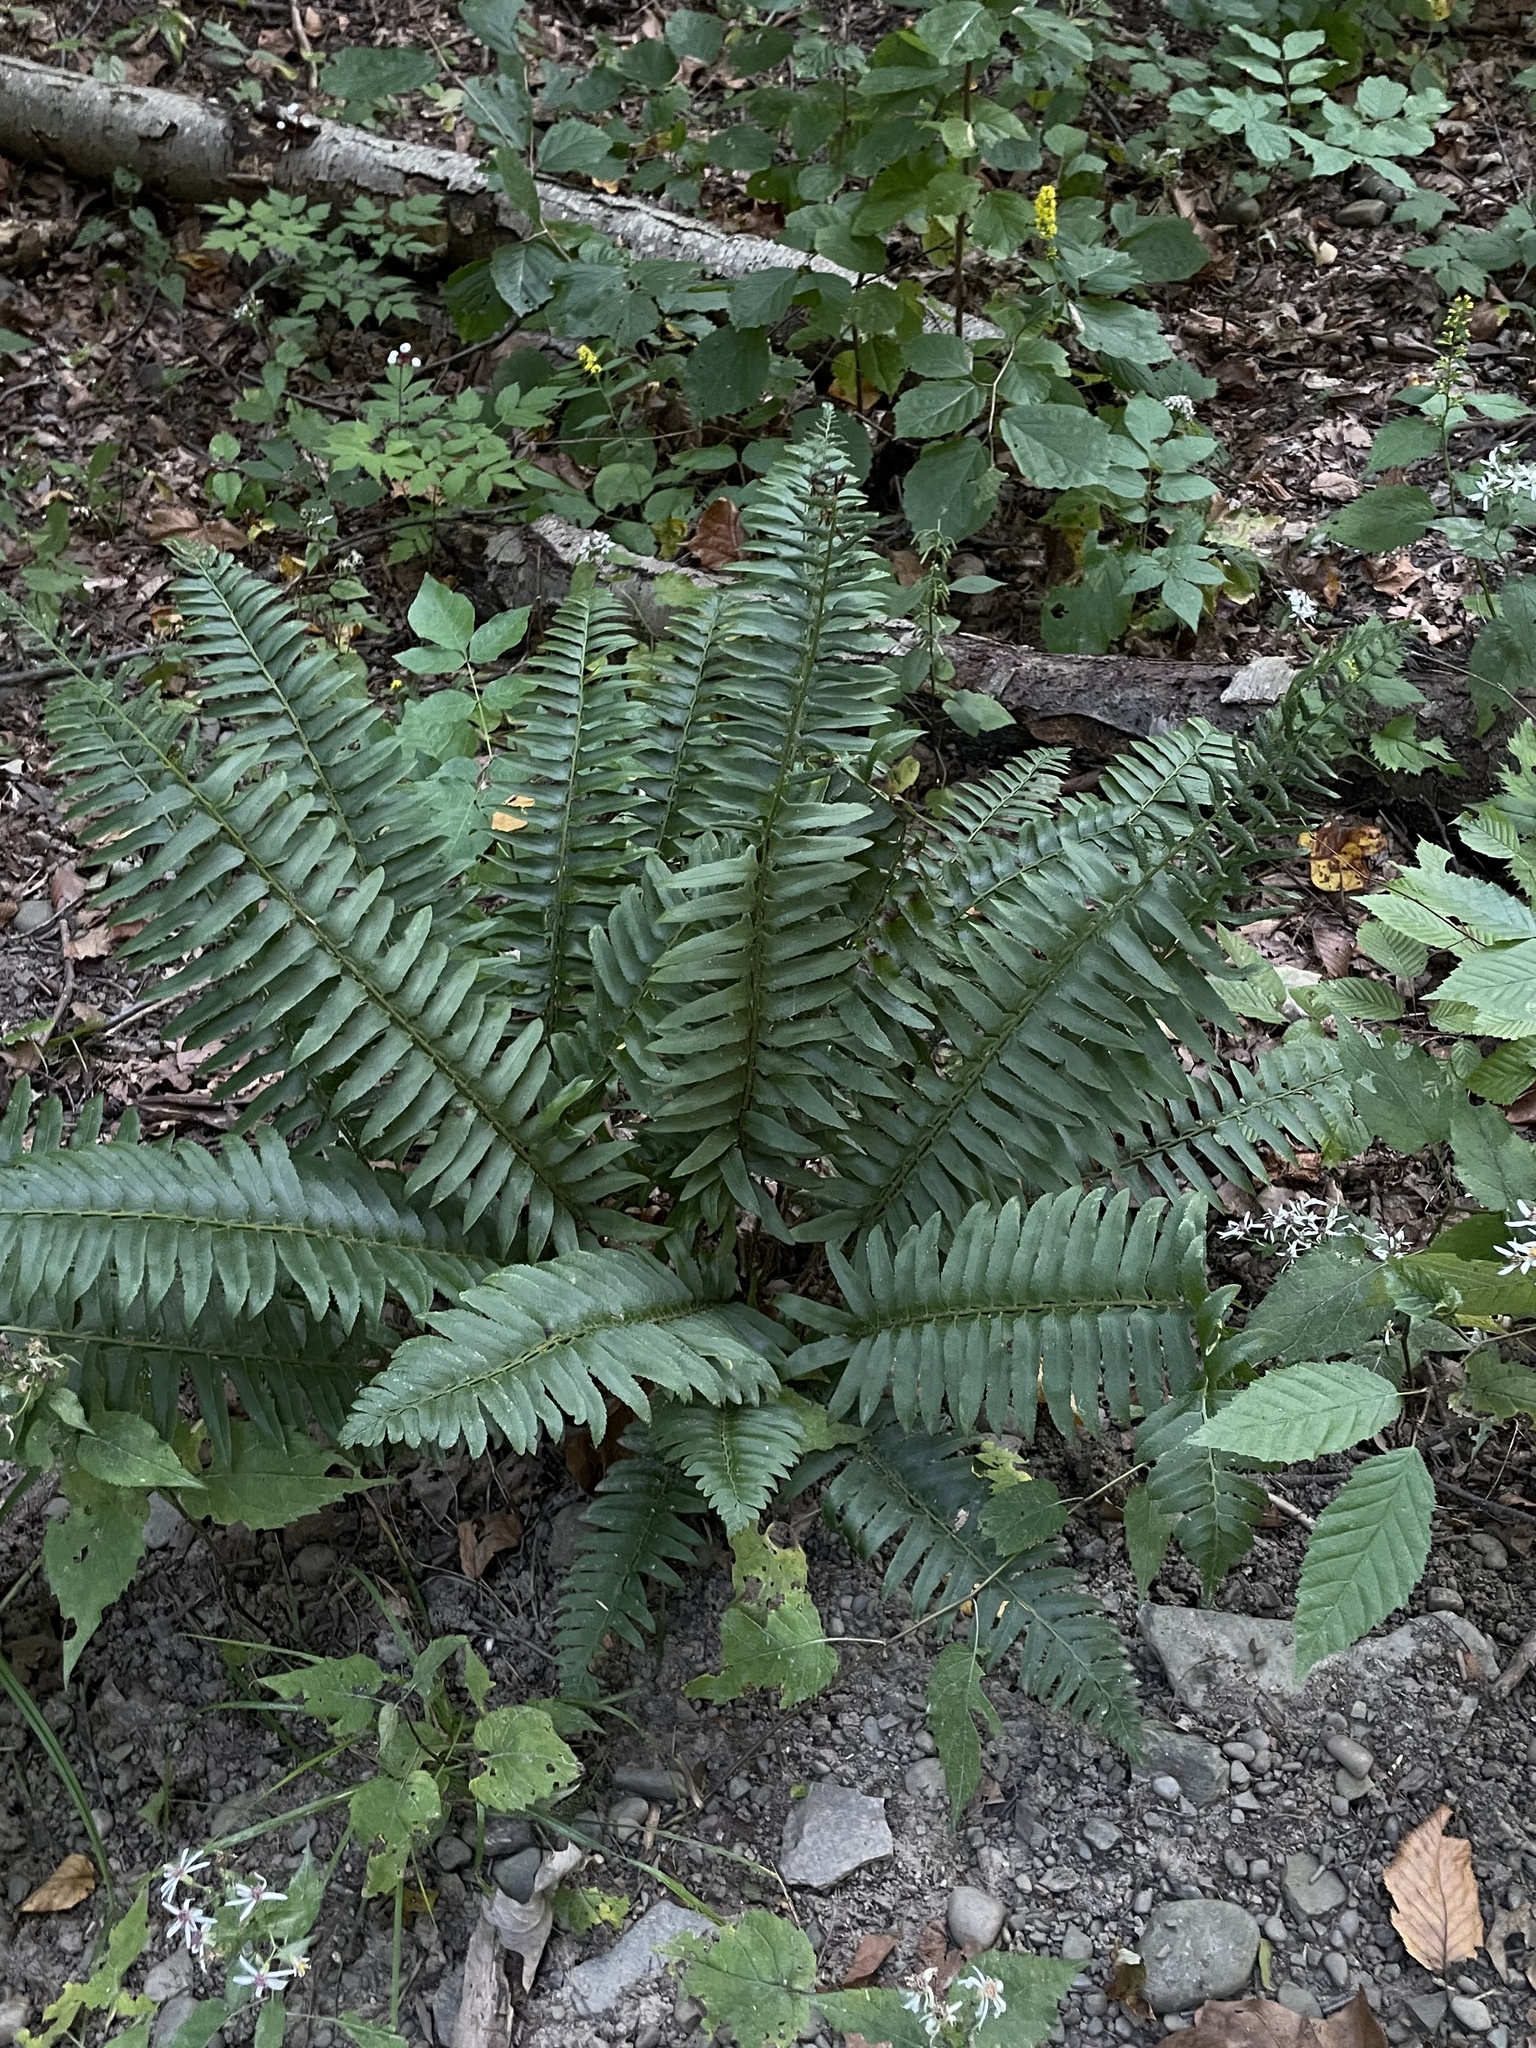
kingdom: Plantae
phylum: Tracheophyta
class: Polypodiopsida
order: Polypodiales
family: Dryopteridaceae
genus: Polystichum
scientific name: Polystichum acrostichoides
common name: Christmas fern
